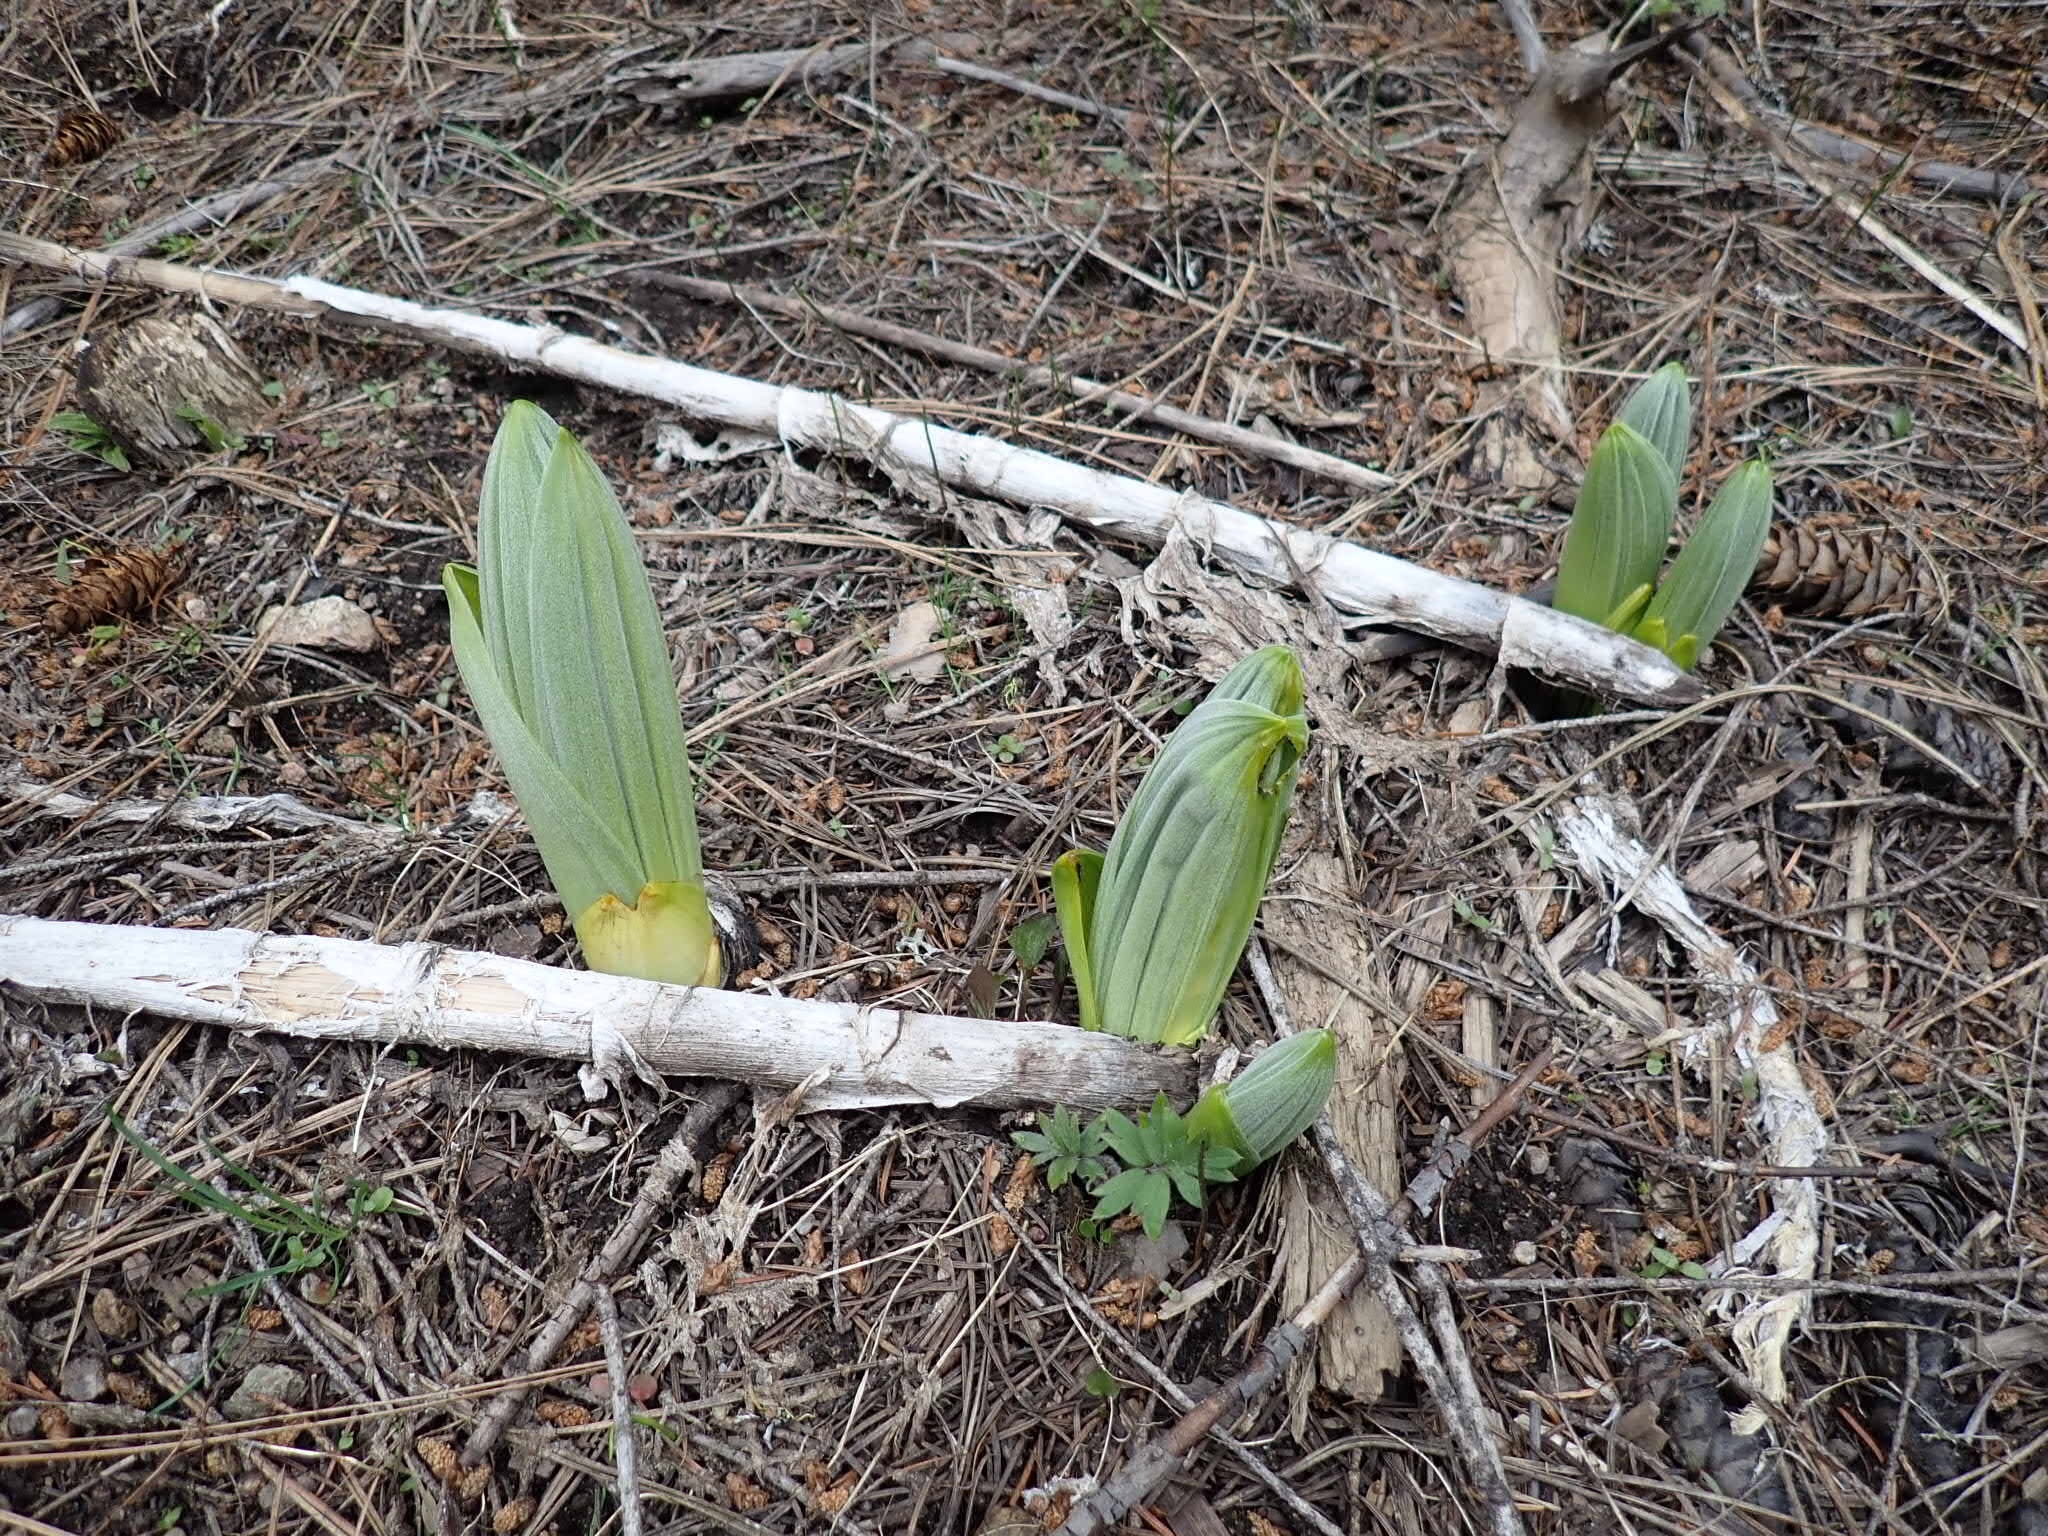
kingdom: Plantae
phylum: Tracheophyta
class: Liliopsida
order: Liliales
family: Melanthiaceae
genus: Veratrum
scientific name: Veratrum viride
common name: American false hellebore
